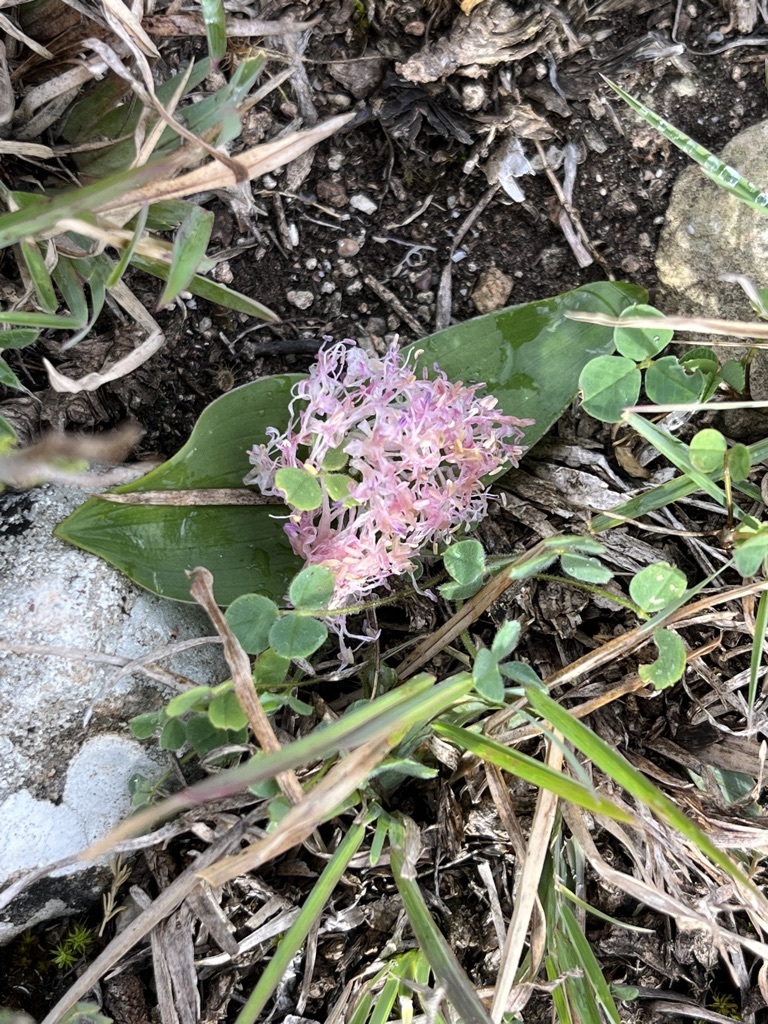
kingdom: Plantae
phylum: Tracheophyta
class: Liliopsida
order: Asparagales
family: Asparagaceae
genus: Lachenalia
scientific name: Lachenalia pygmaea
